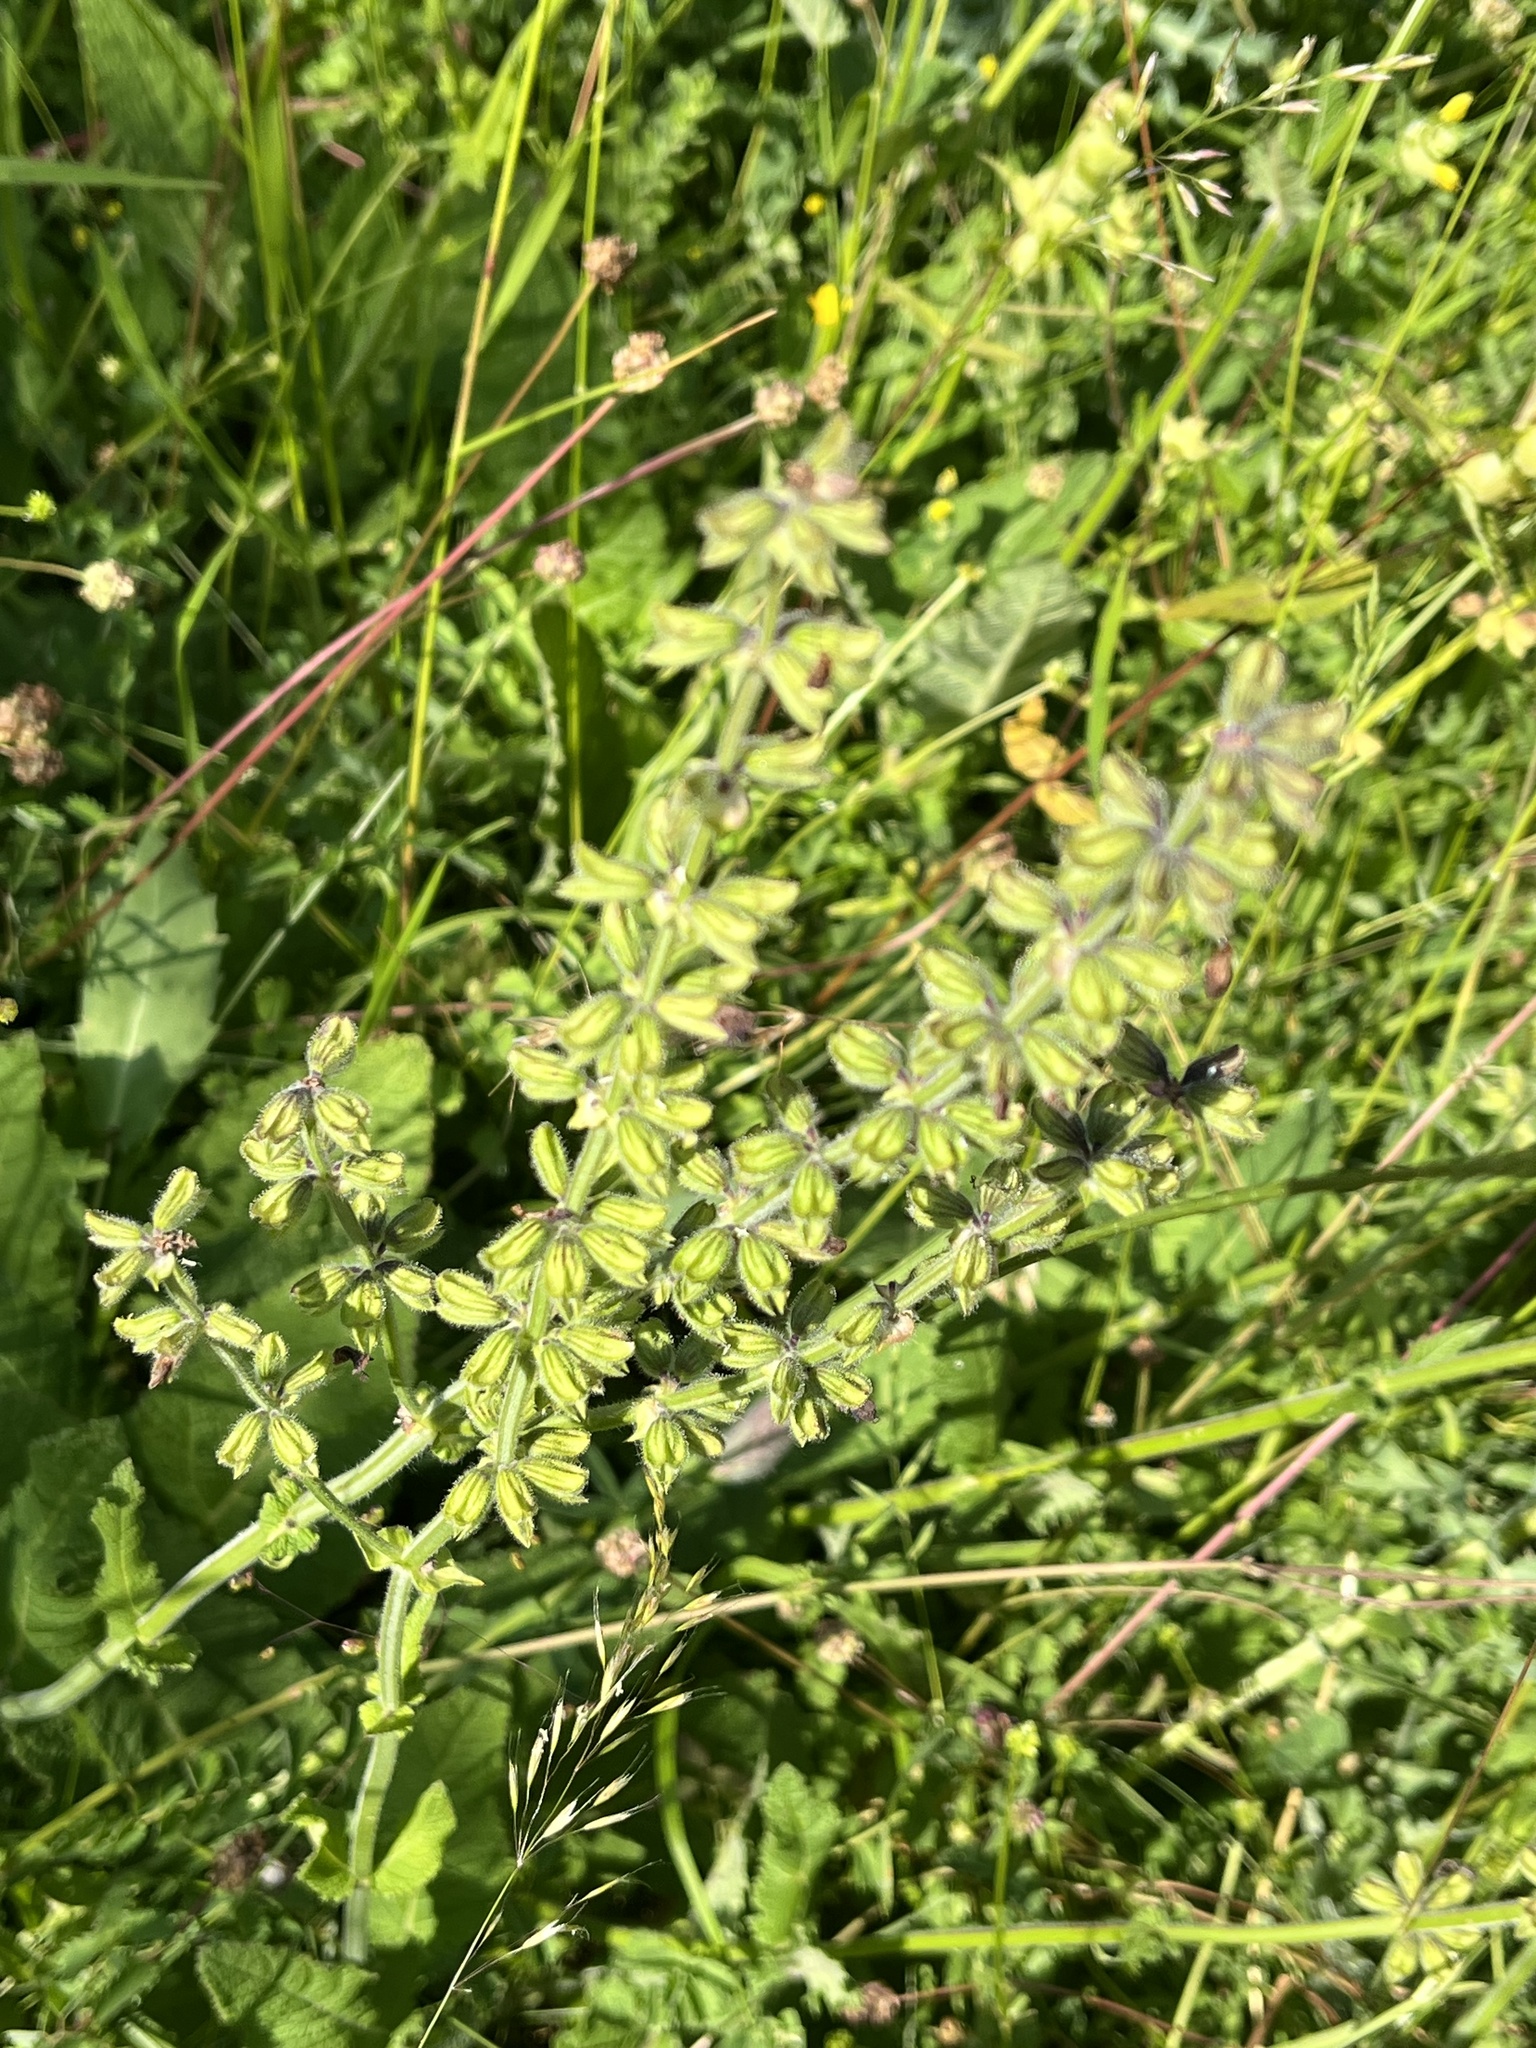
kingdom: Plantae
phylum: Tracheophyta
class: Magnoliopsida
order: Lamiales
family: Lamiaceae
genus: Salvia
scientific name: Salvia pratensis
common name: Meadow sage
